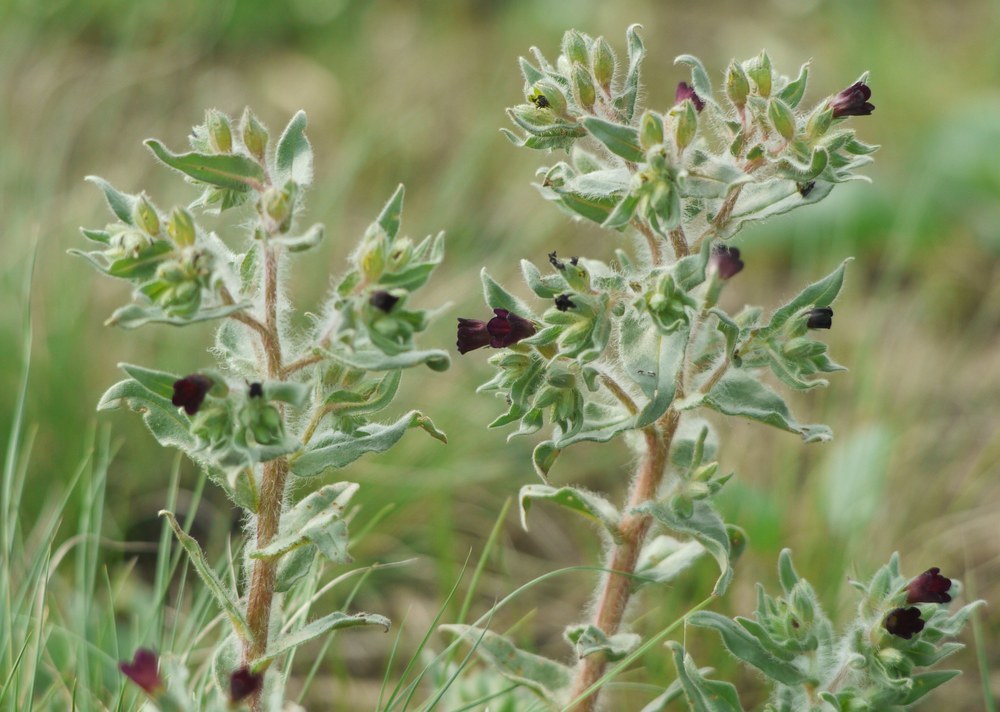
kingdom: Plantae
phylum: Tracheophyta
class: Magnoliopsida
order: Boraginales
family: Boraginaceae
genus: Nonea
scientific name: Nonea pulla
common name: Brown nonea
